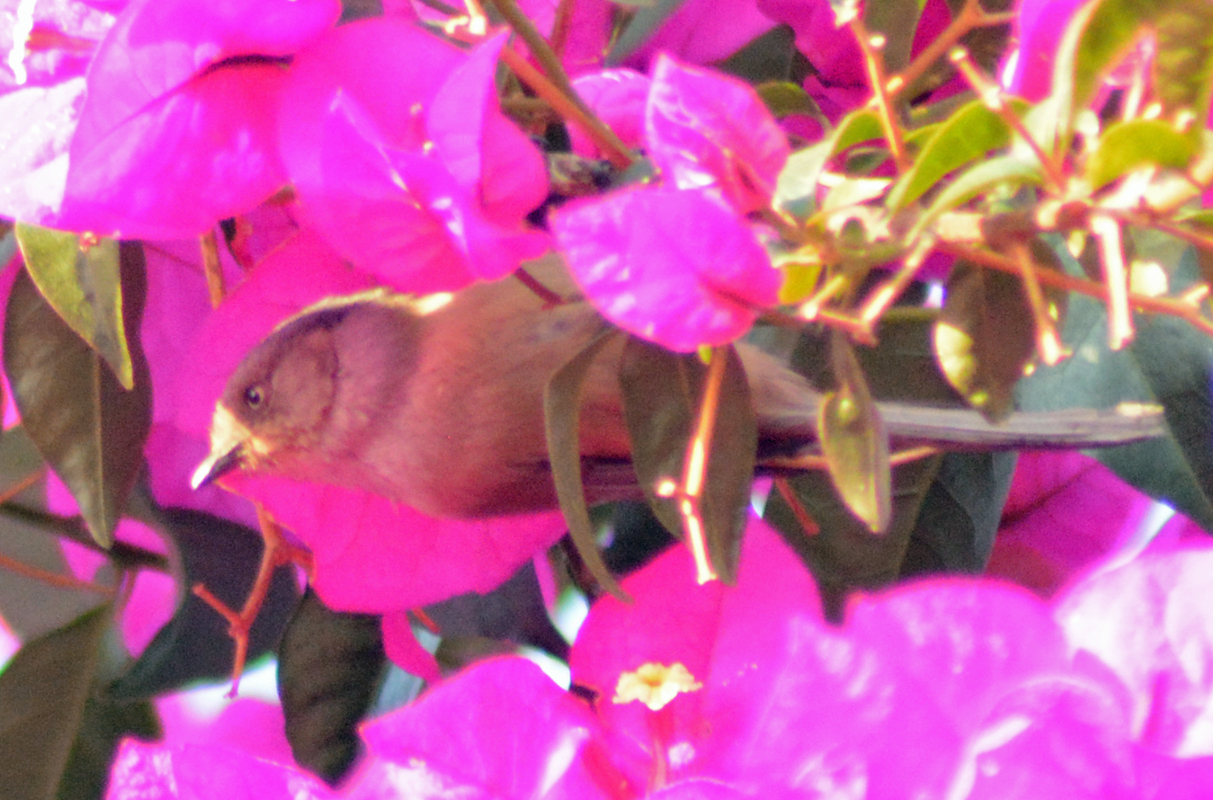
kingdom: Animalia
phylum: Chordata
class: Aves
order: Passeriformes
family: Aegithalidae
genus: Psaltriparus
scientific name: Psaltriparus minimus
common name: American bushtit
